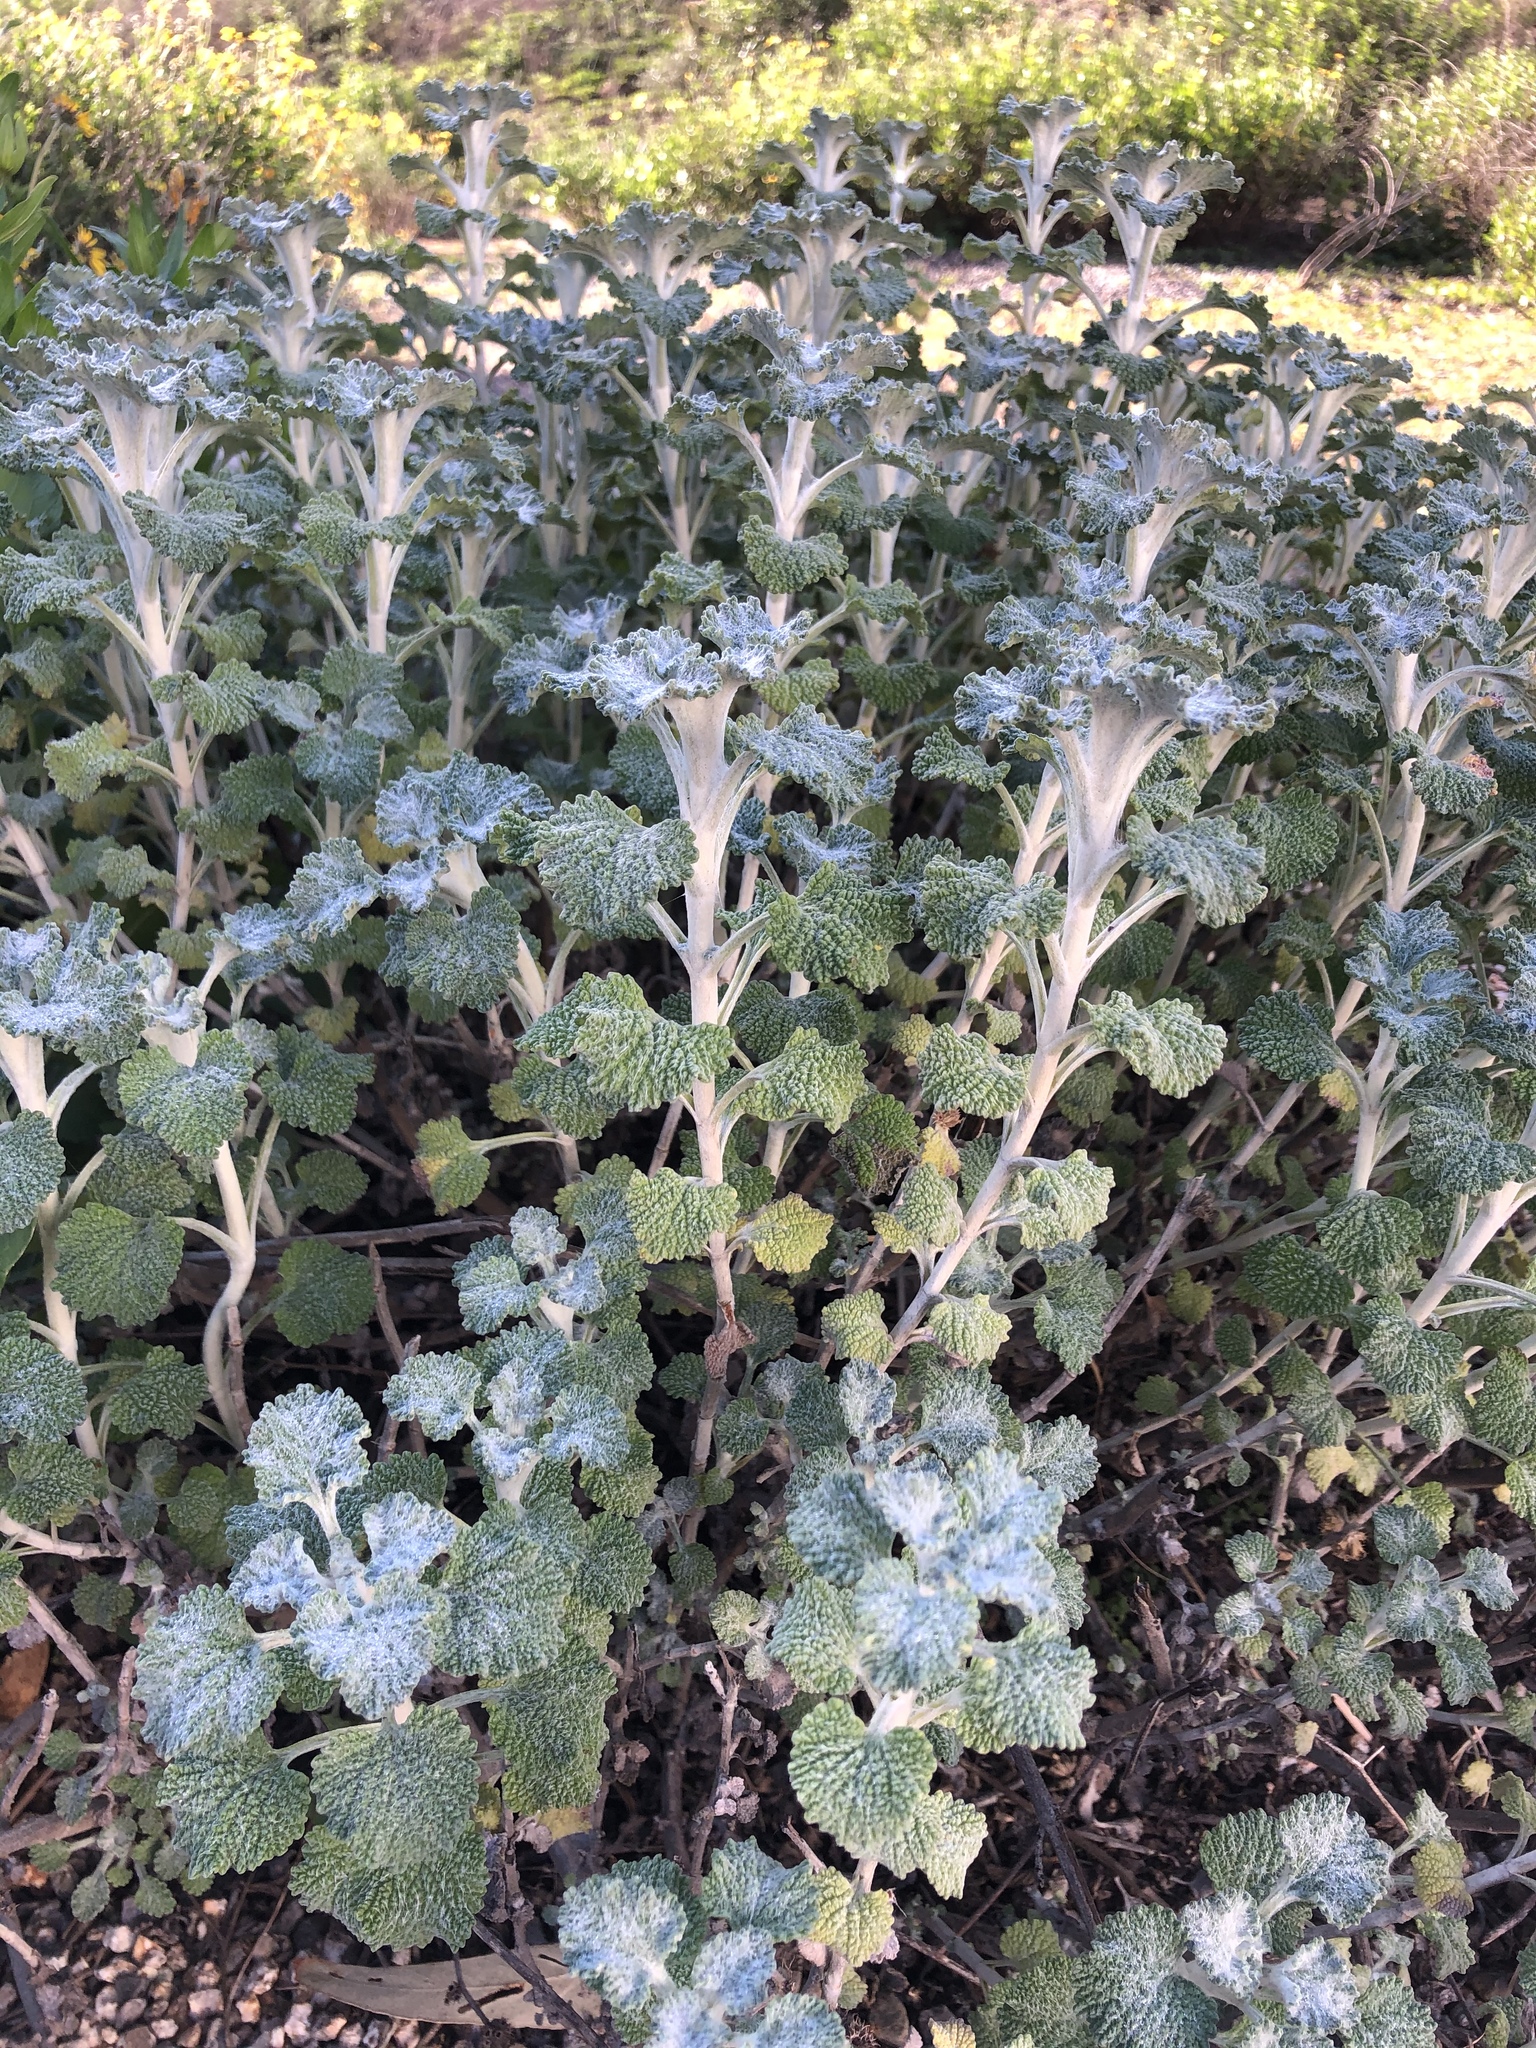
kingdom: Plantae
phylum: Tracheophyta
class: Magnoliopsida
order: Lamiales
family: Lamiaceae
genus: Marrubium
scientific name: Marrubium vulgare
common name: Horehound
